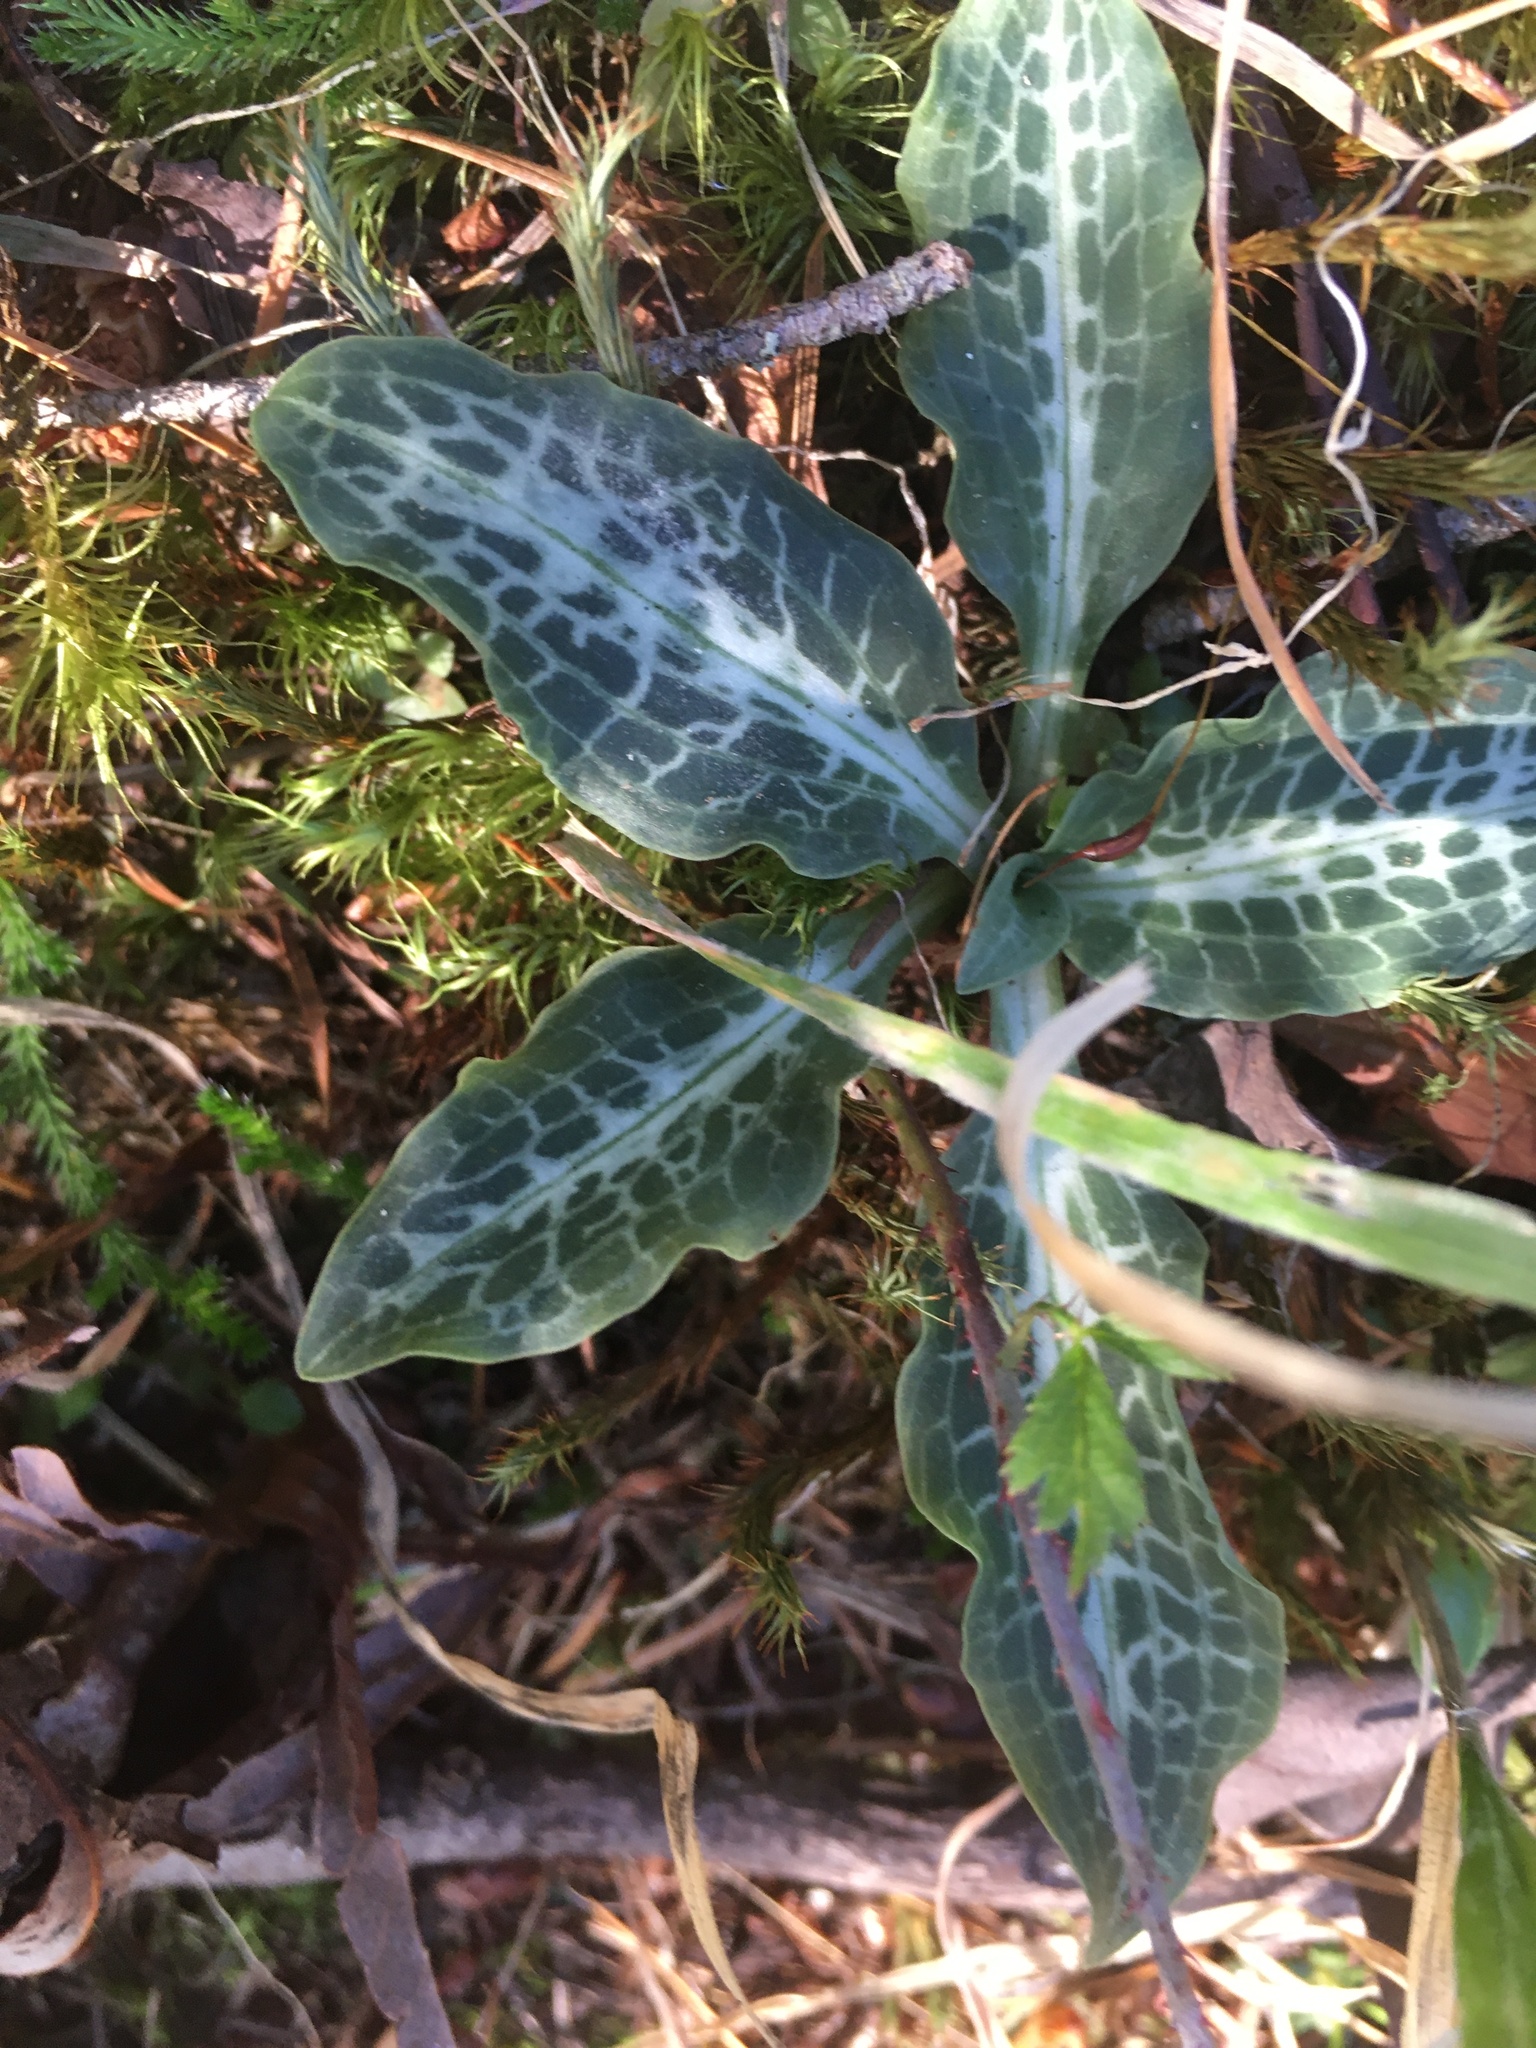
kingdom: Plantae
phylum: Tracheophyta
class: Liliopsida
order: Asparagales
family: Orchidaceae
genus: Goodyera
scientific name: Goodyera oblongifolia
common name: Giant rattlesnake-plantain
